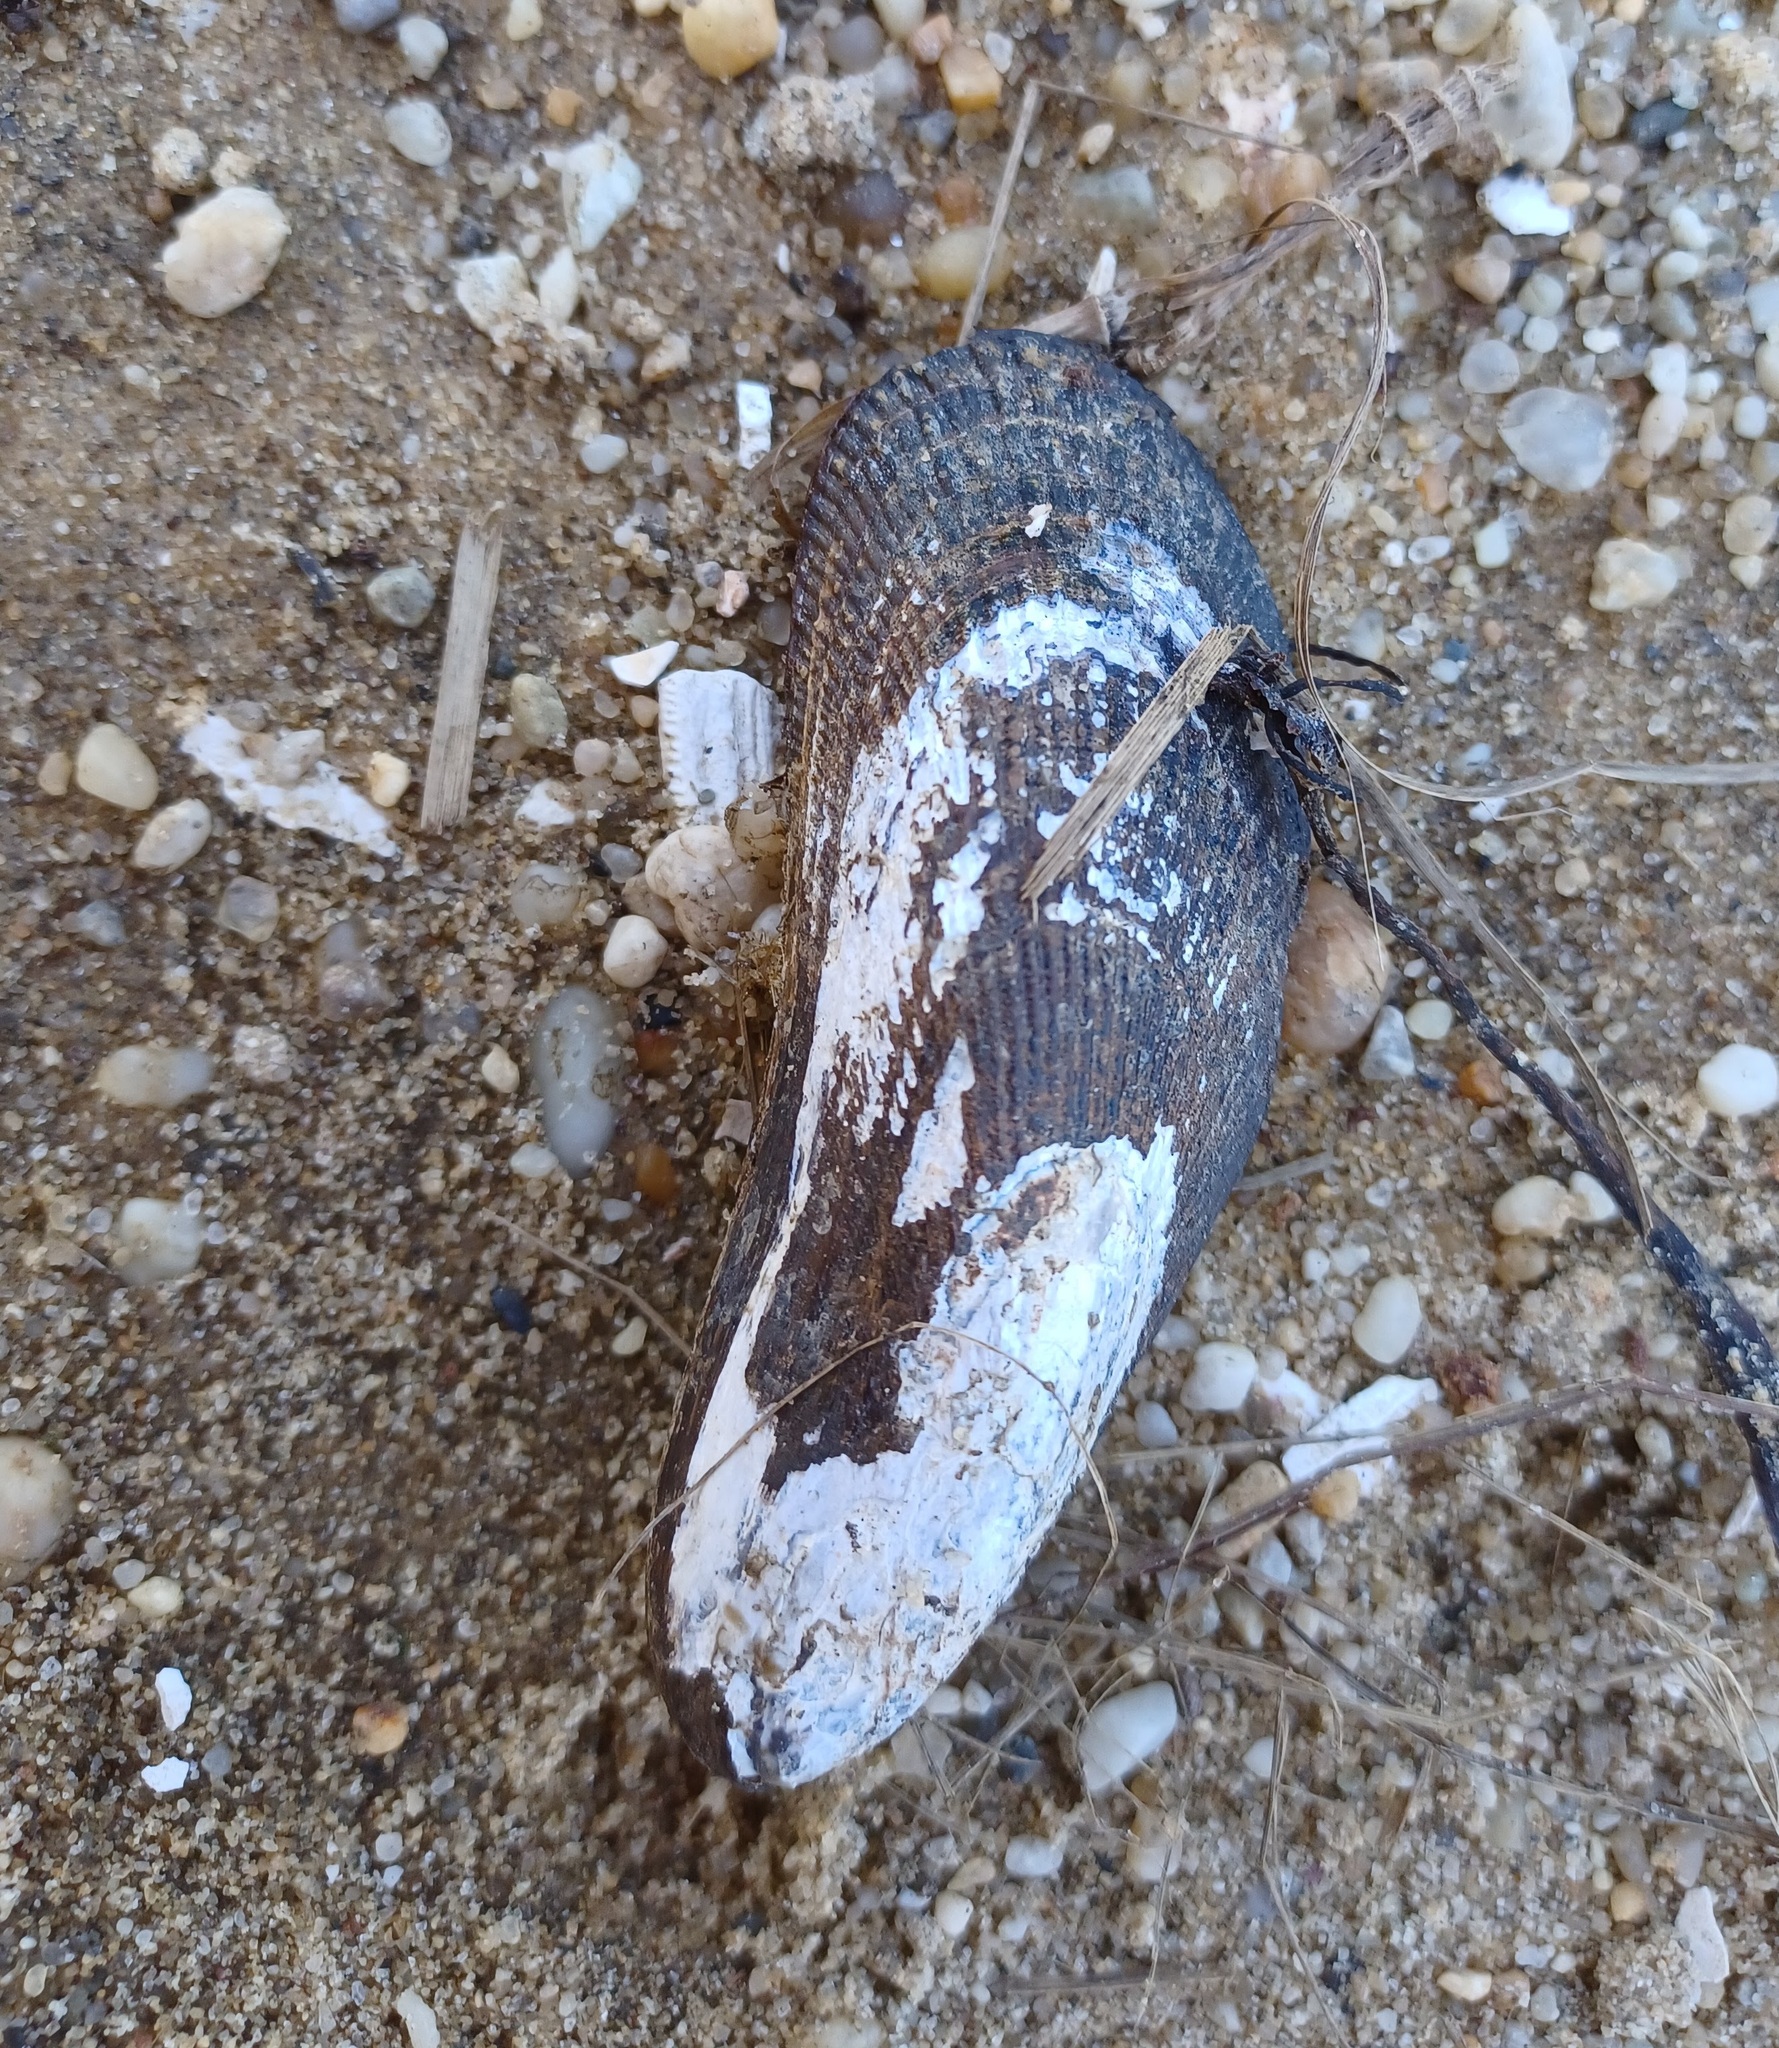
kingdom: Animalia
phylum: Mollusca
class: Bivalvia
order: Mytilida
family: Mytilidae
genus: Geukensia
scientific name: Geukensia demissa
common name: Ribbed mussel
